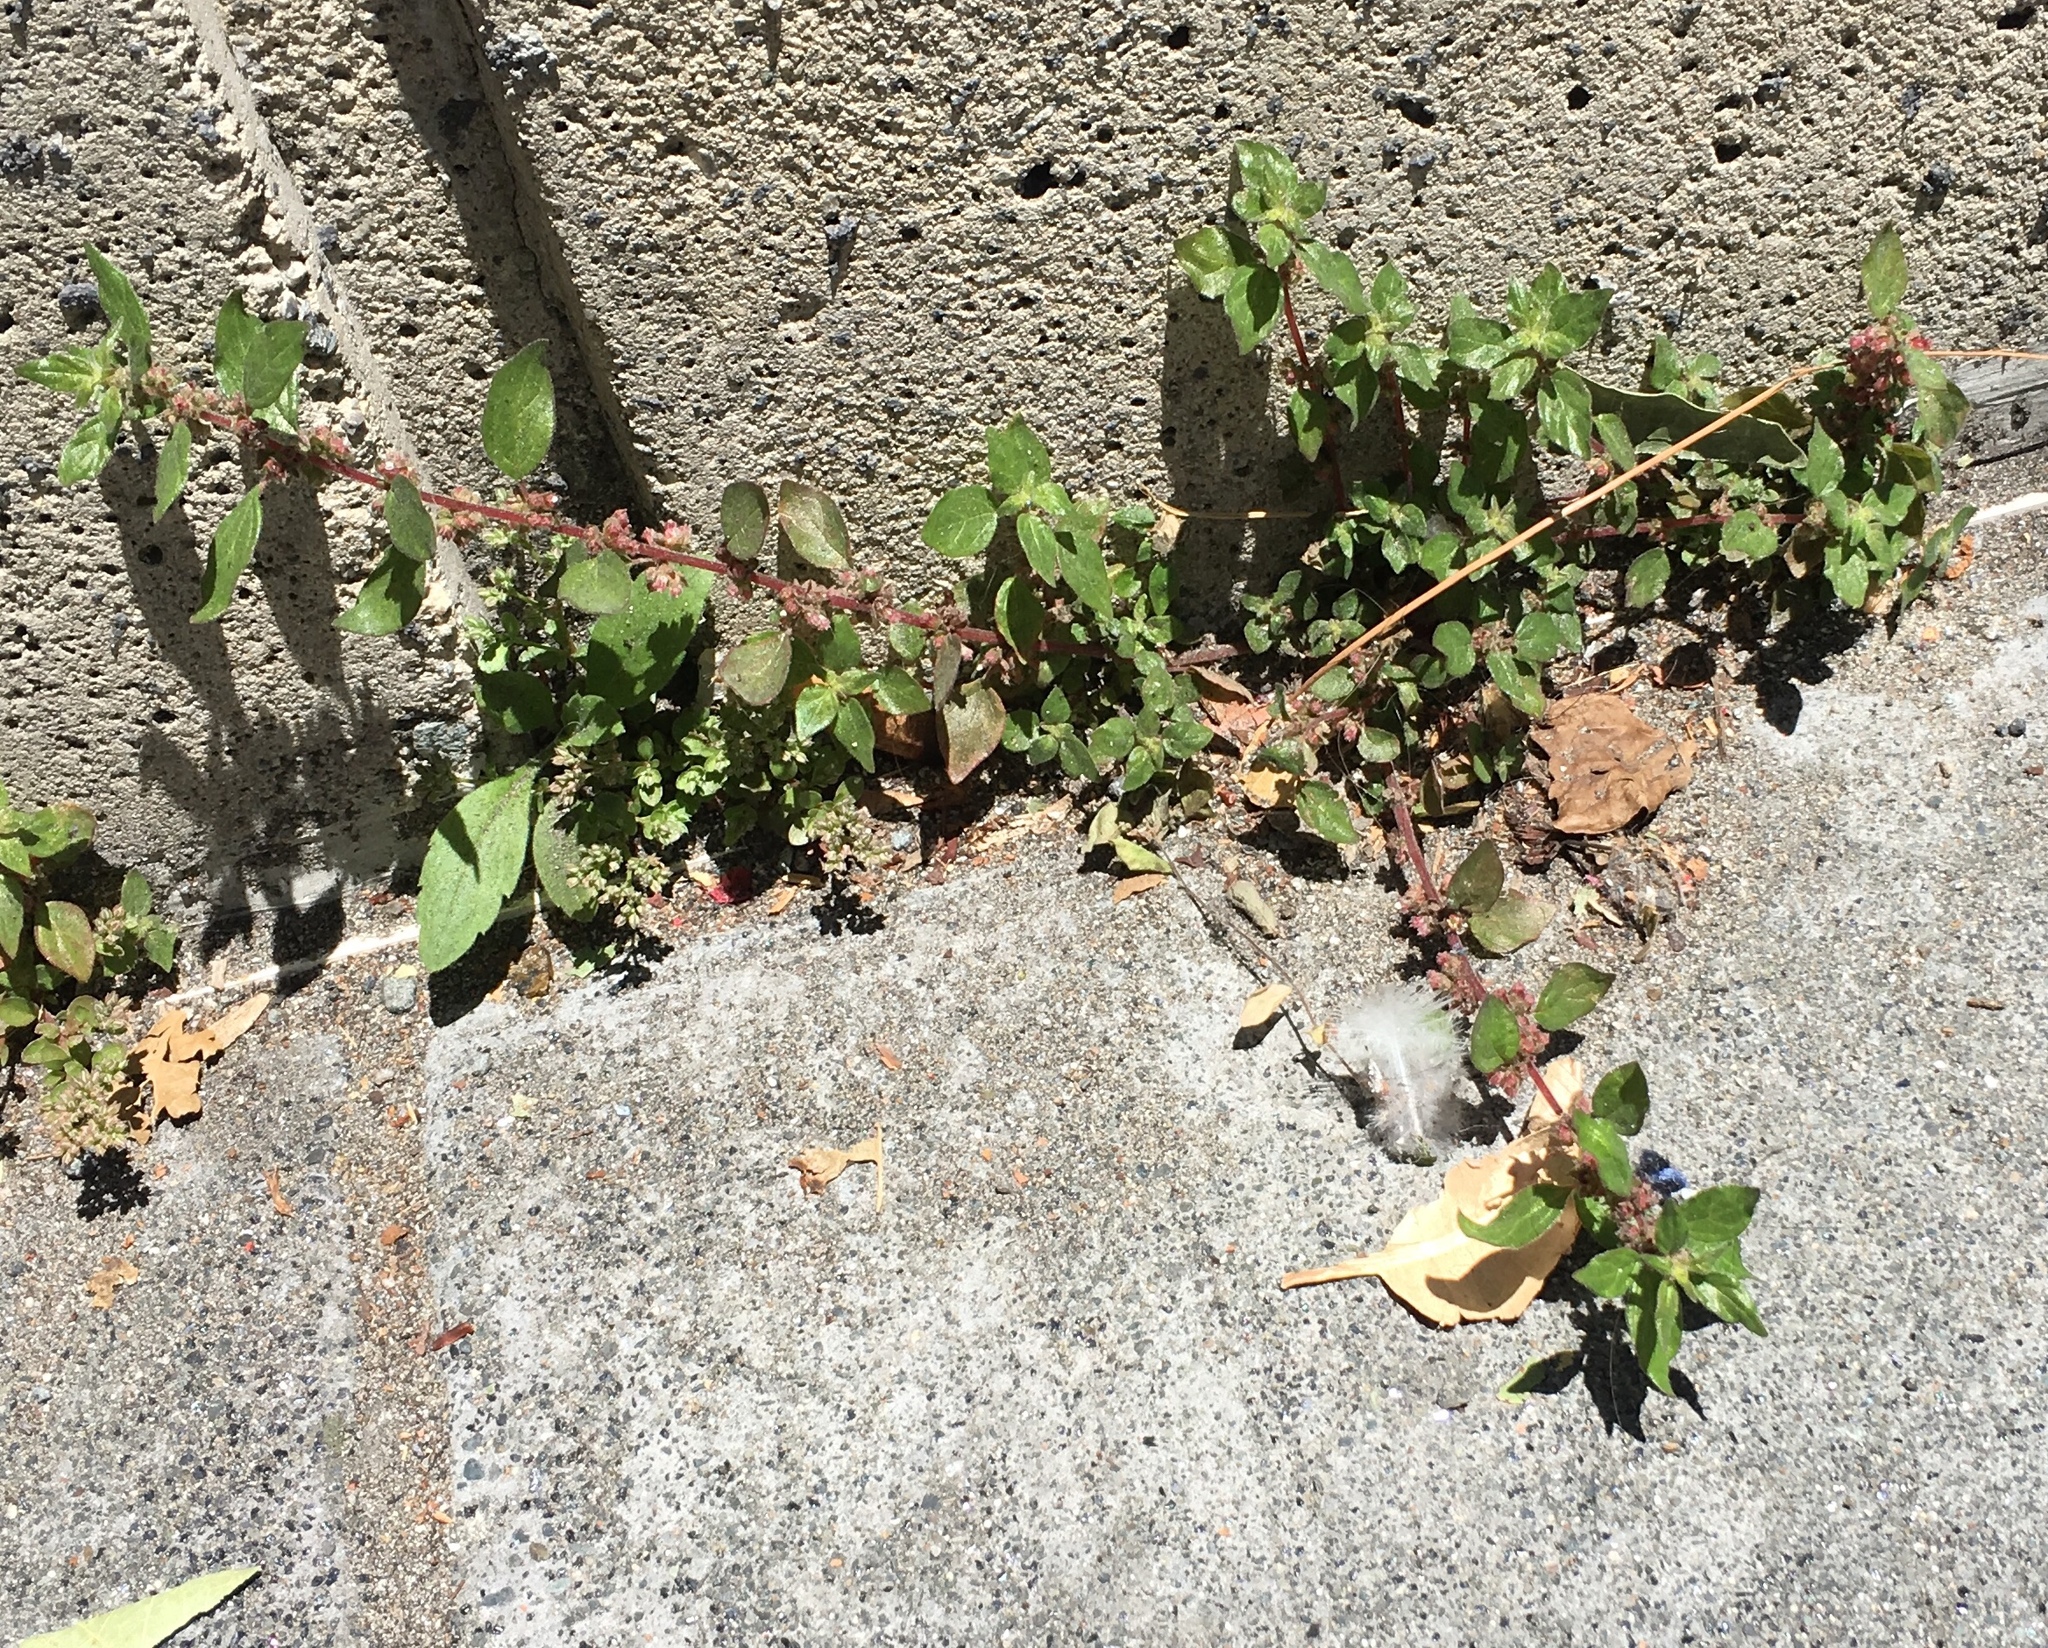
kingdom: Plantae
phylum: Tracheophyta
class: Magnoliopsida
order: Rosales
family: Urticaceae
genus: Parietaria
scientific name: Parietaria judaica
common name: Pellitory-of-the-wall
